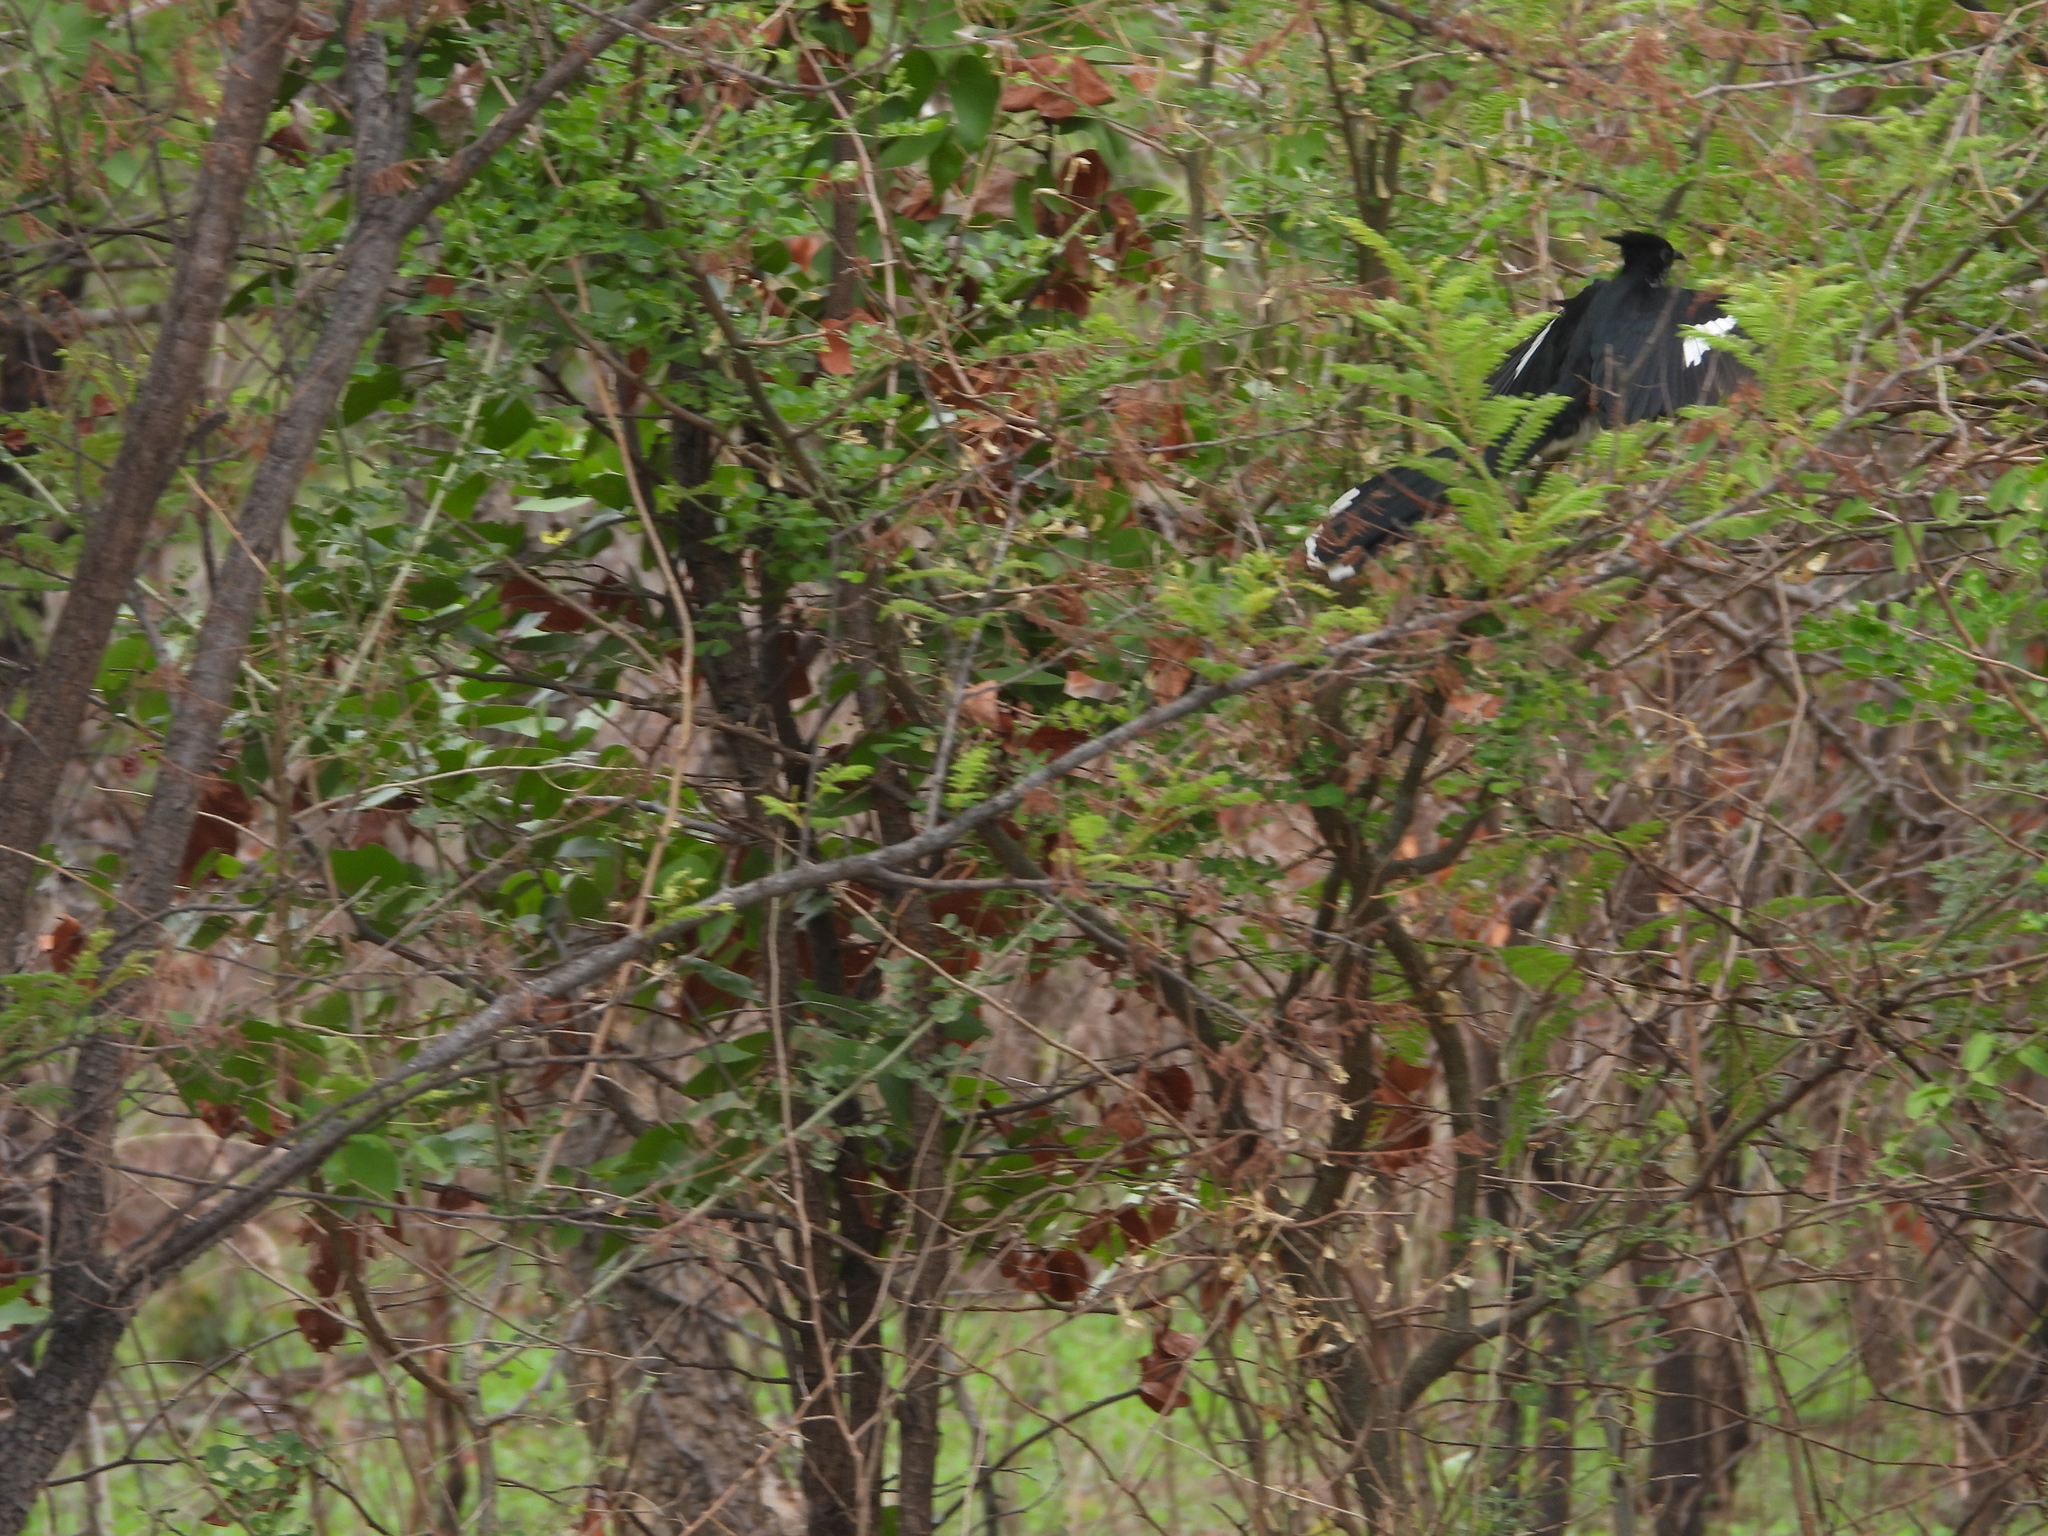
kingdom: Animalia
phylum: Chordata
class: Aves
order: Passeriformes
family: Laniidae
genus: Urolestes
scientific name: Urolestes melanoleucus
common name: Magpie shrike
